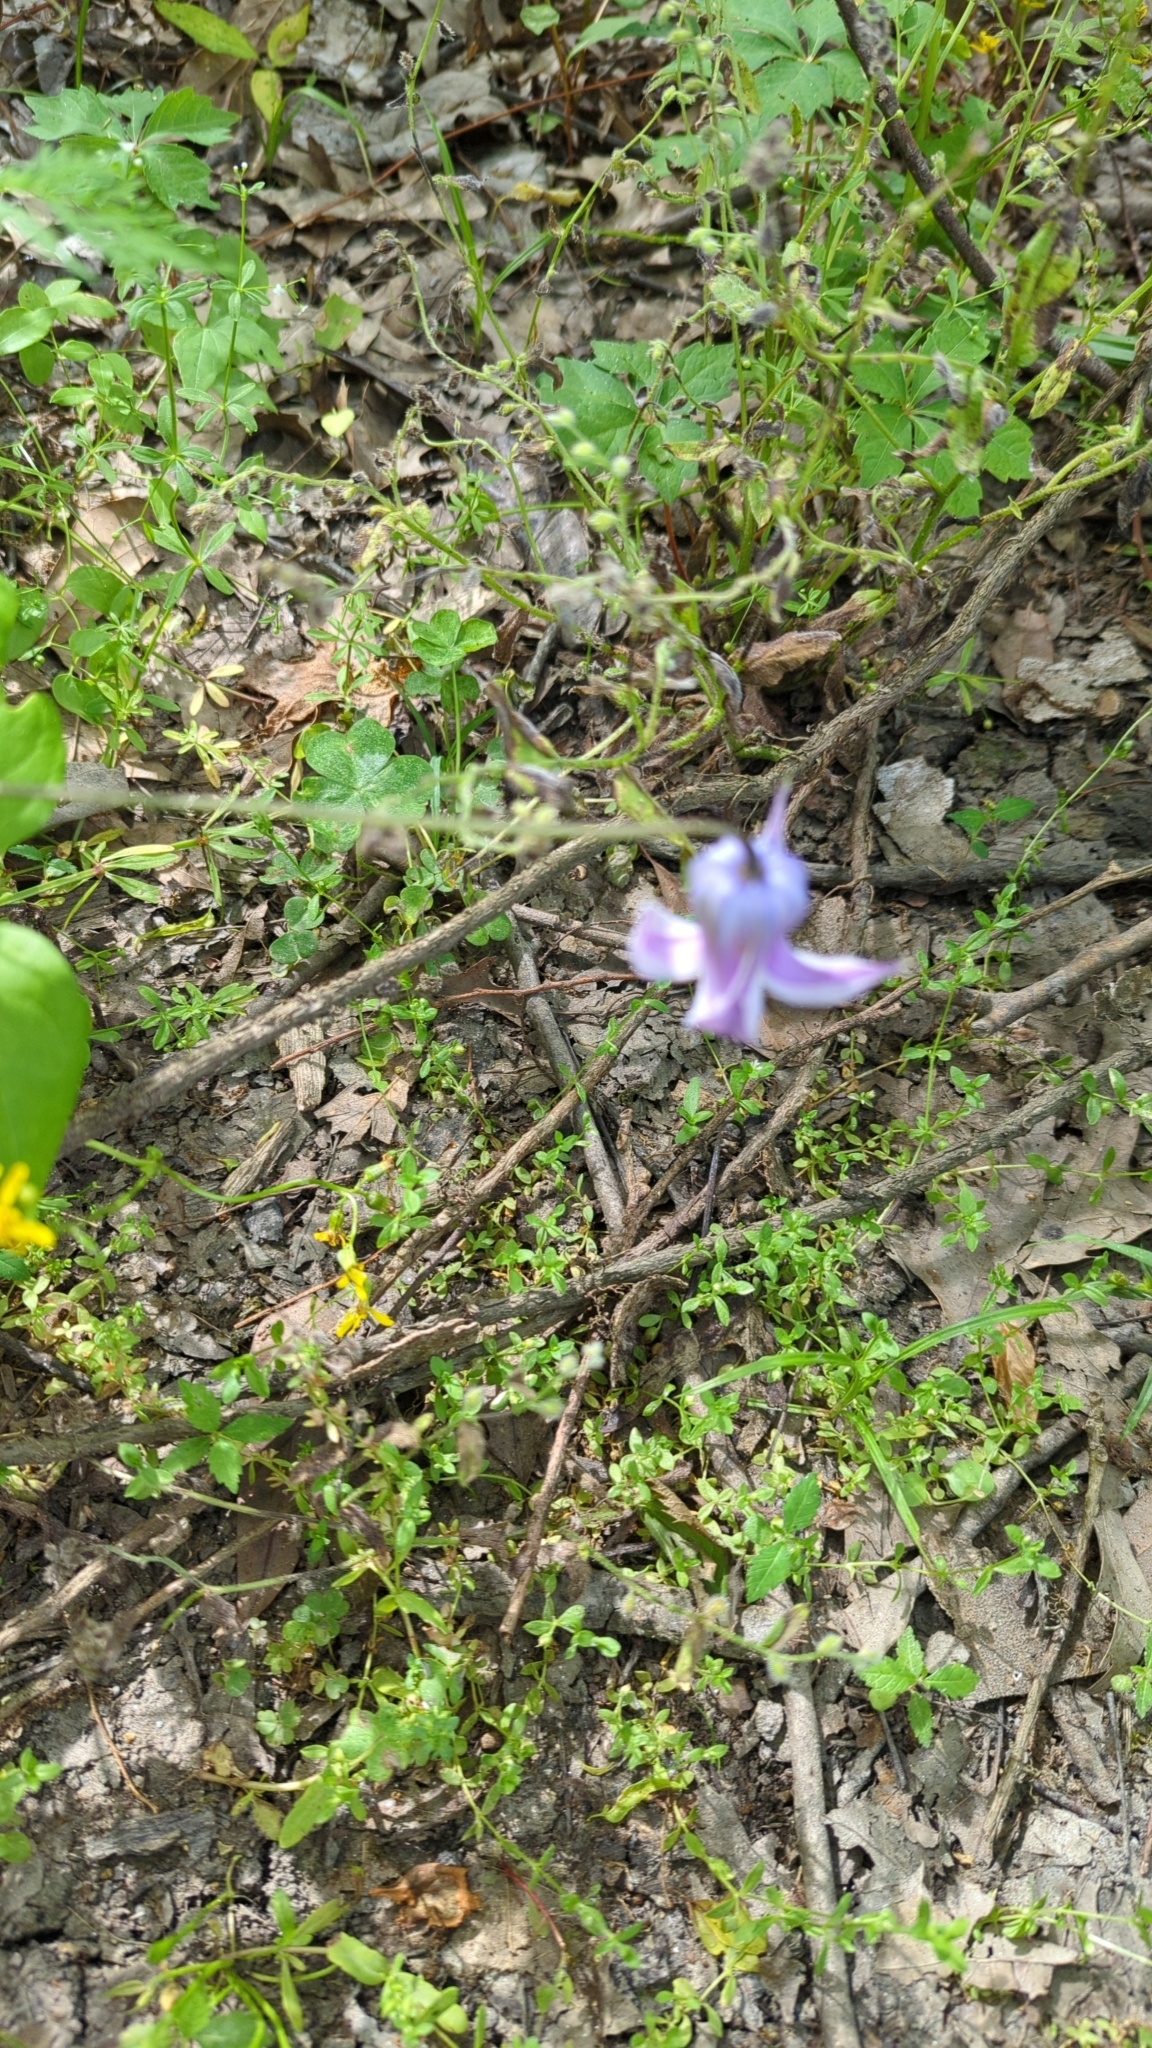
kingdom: Plantae
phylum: Tracheophyta
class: Magnoliopsida
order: Ranunculales
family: Ranunculaceae
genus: Clematis
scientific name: Clematis crispa
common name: Curly clematis
